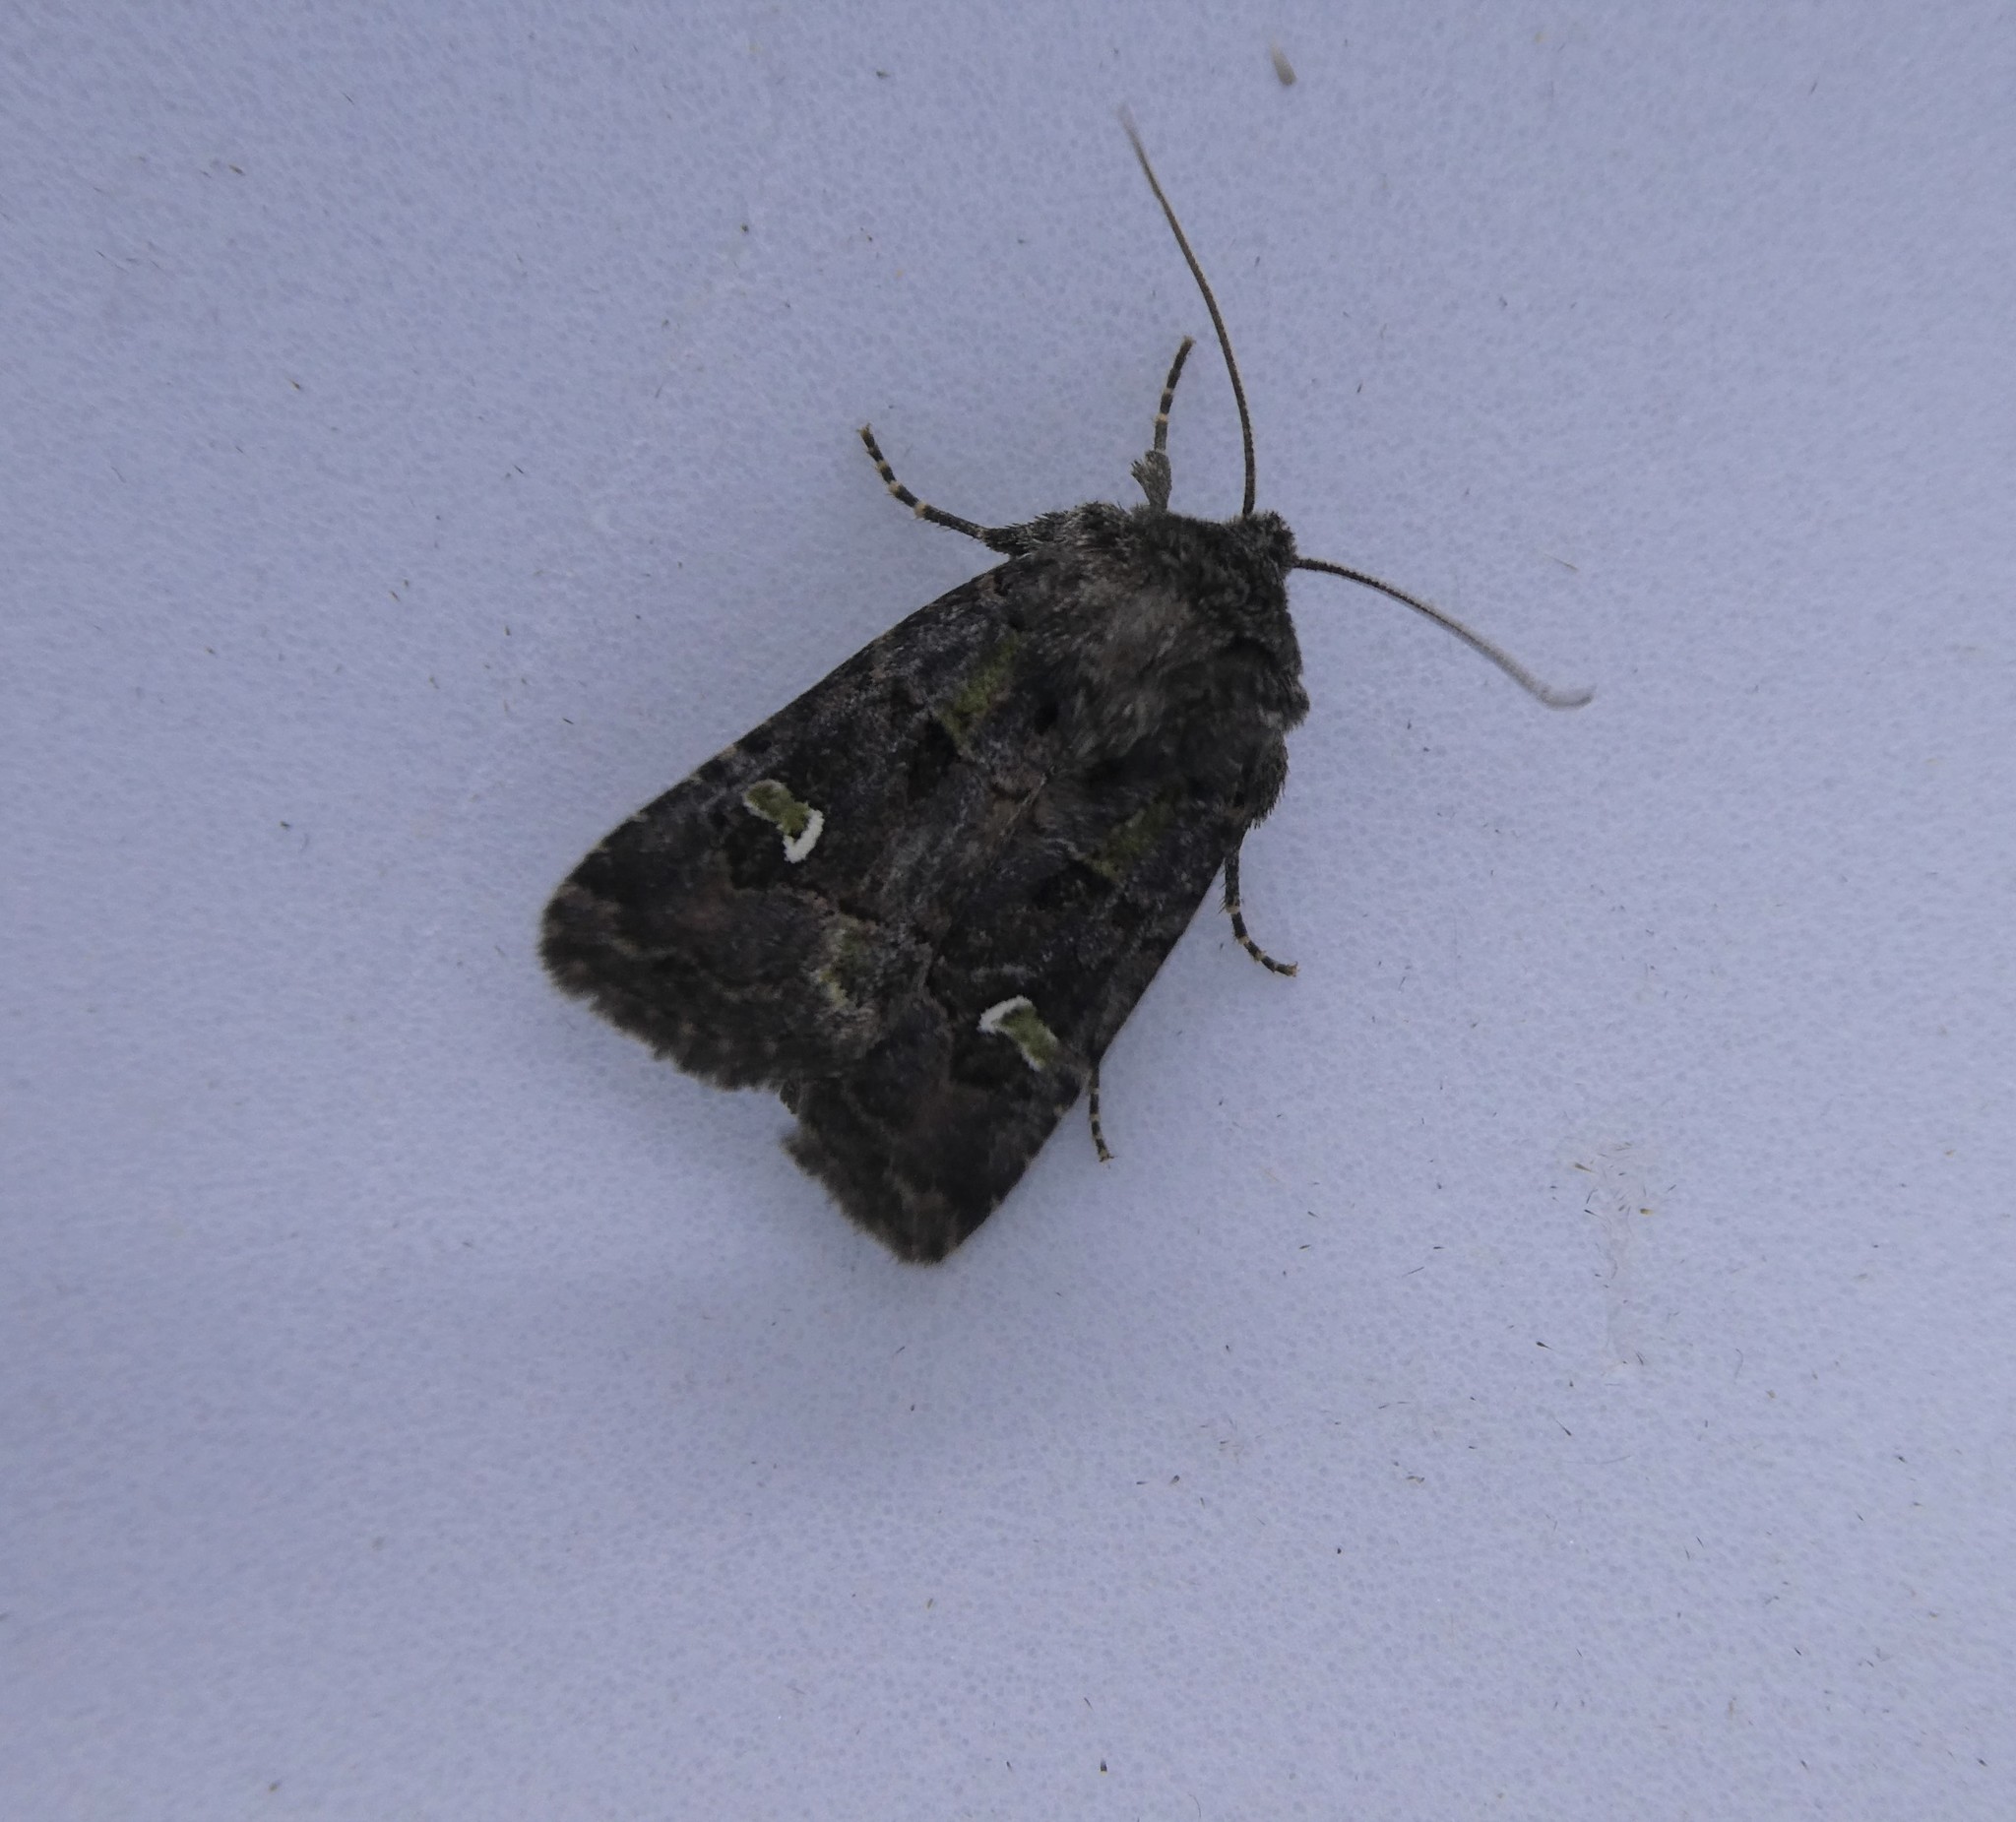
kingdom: Animalia
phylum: Arthropoda
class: Insecta
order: Lepidoptera
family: Noctuidae
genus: Lacinipolia
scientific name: Lacinipolia renigera
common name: Kidney-spotted minor
